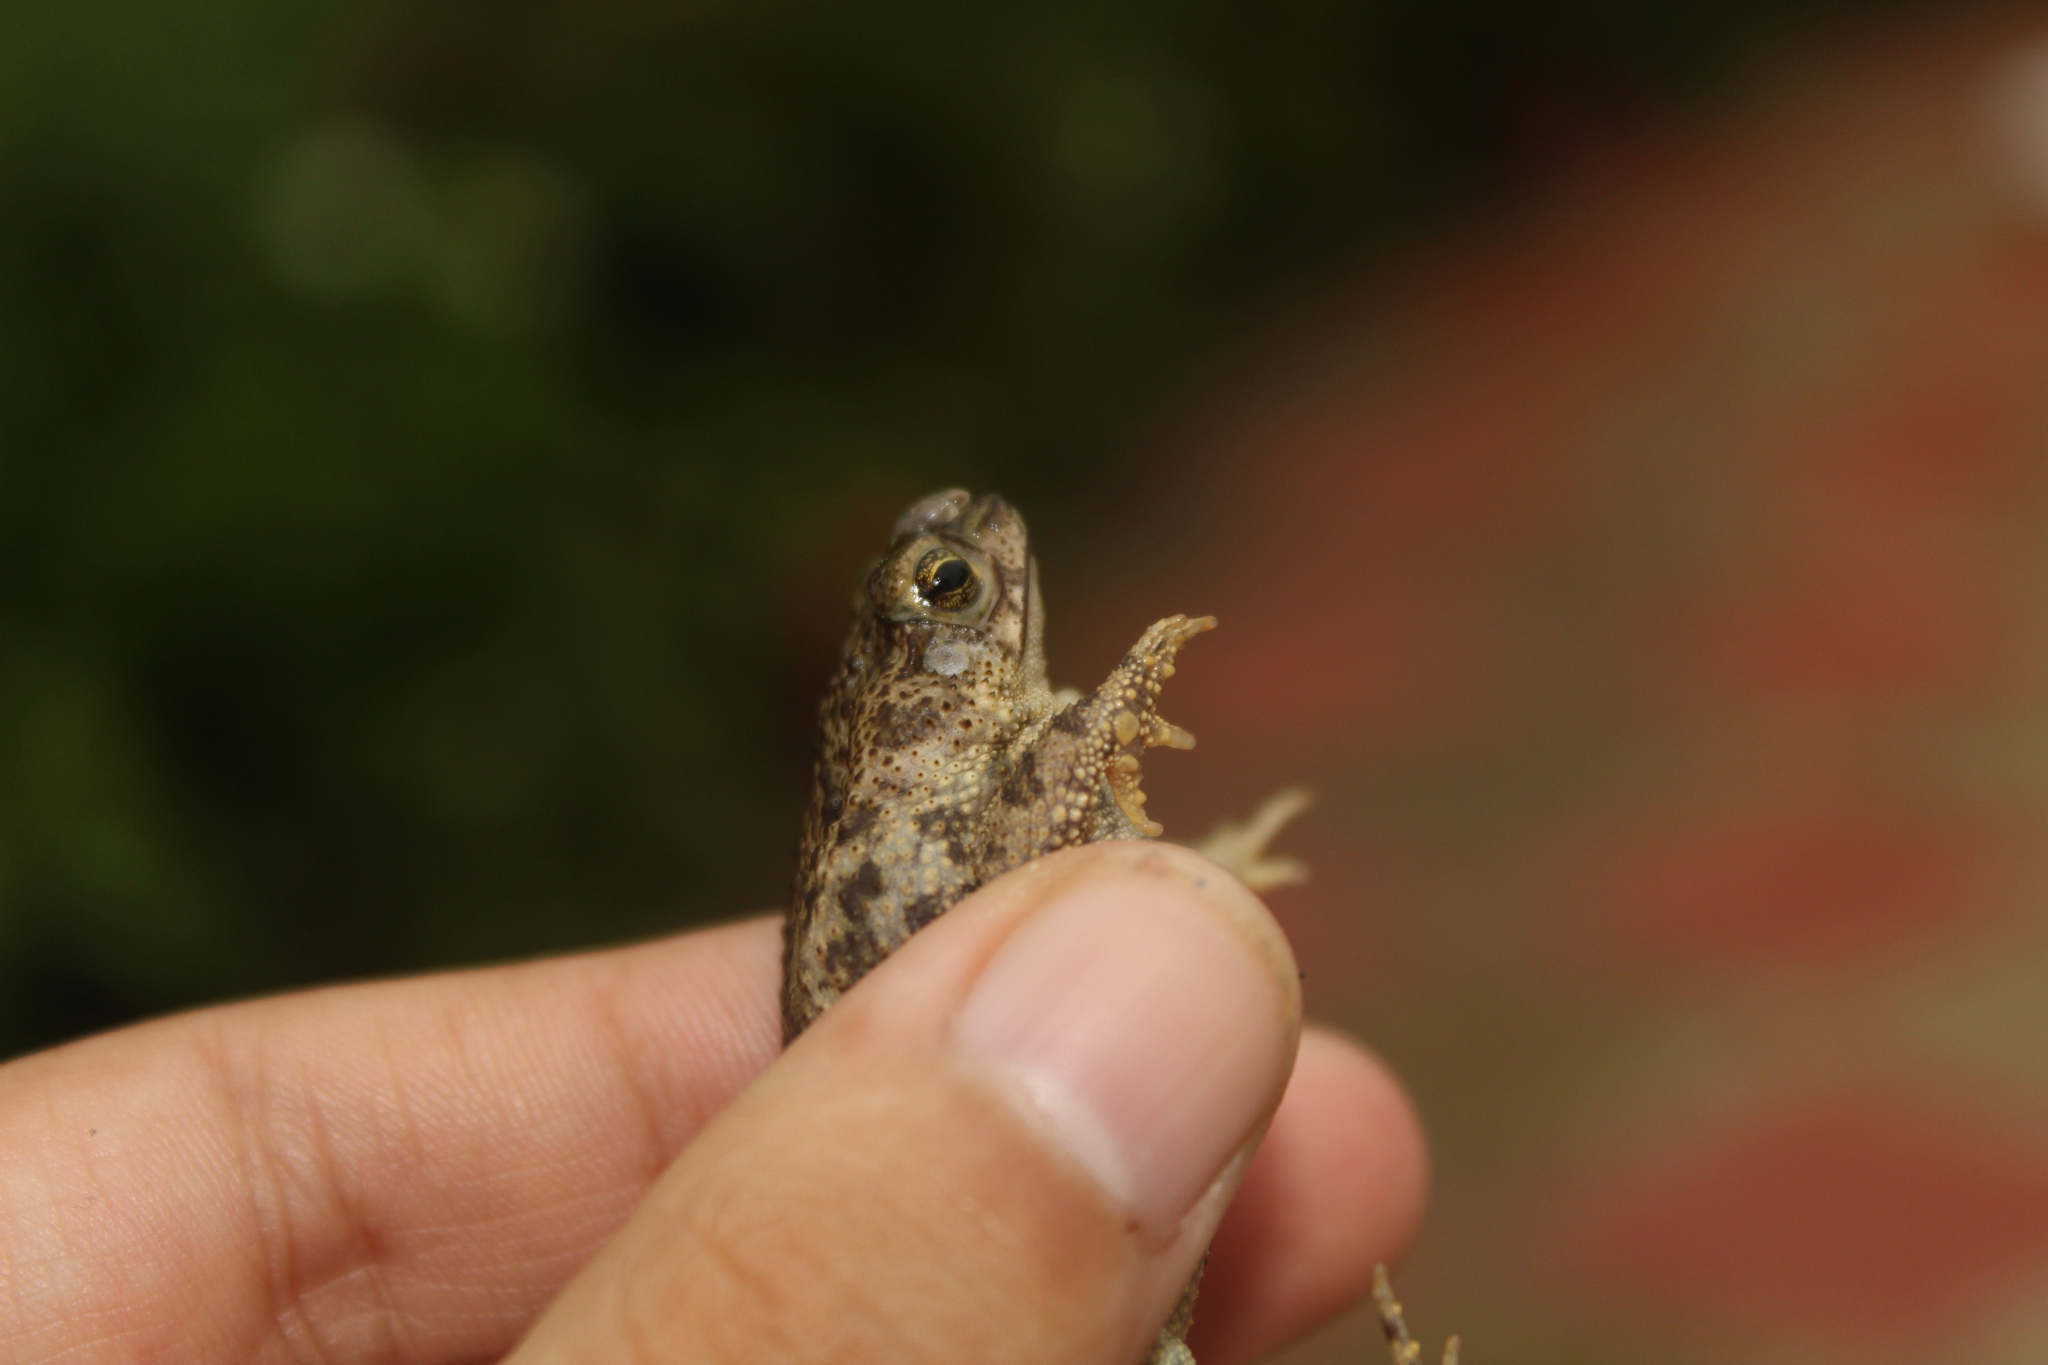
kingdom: Animalia
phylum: Chordata
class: Amphibia
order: Anura
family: Bufonidae
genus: Rhinella
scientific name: Rhinella beebei
